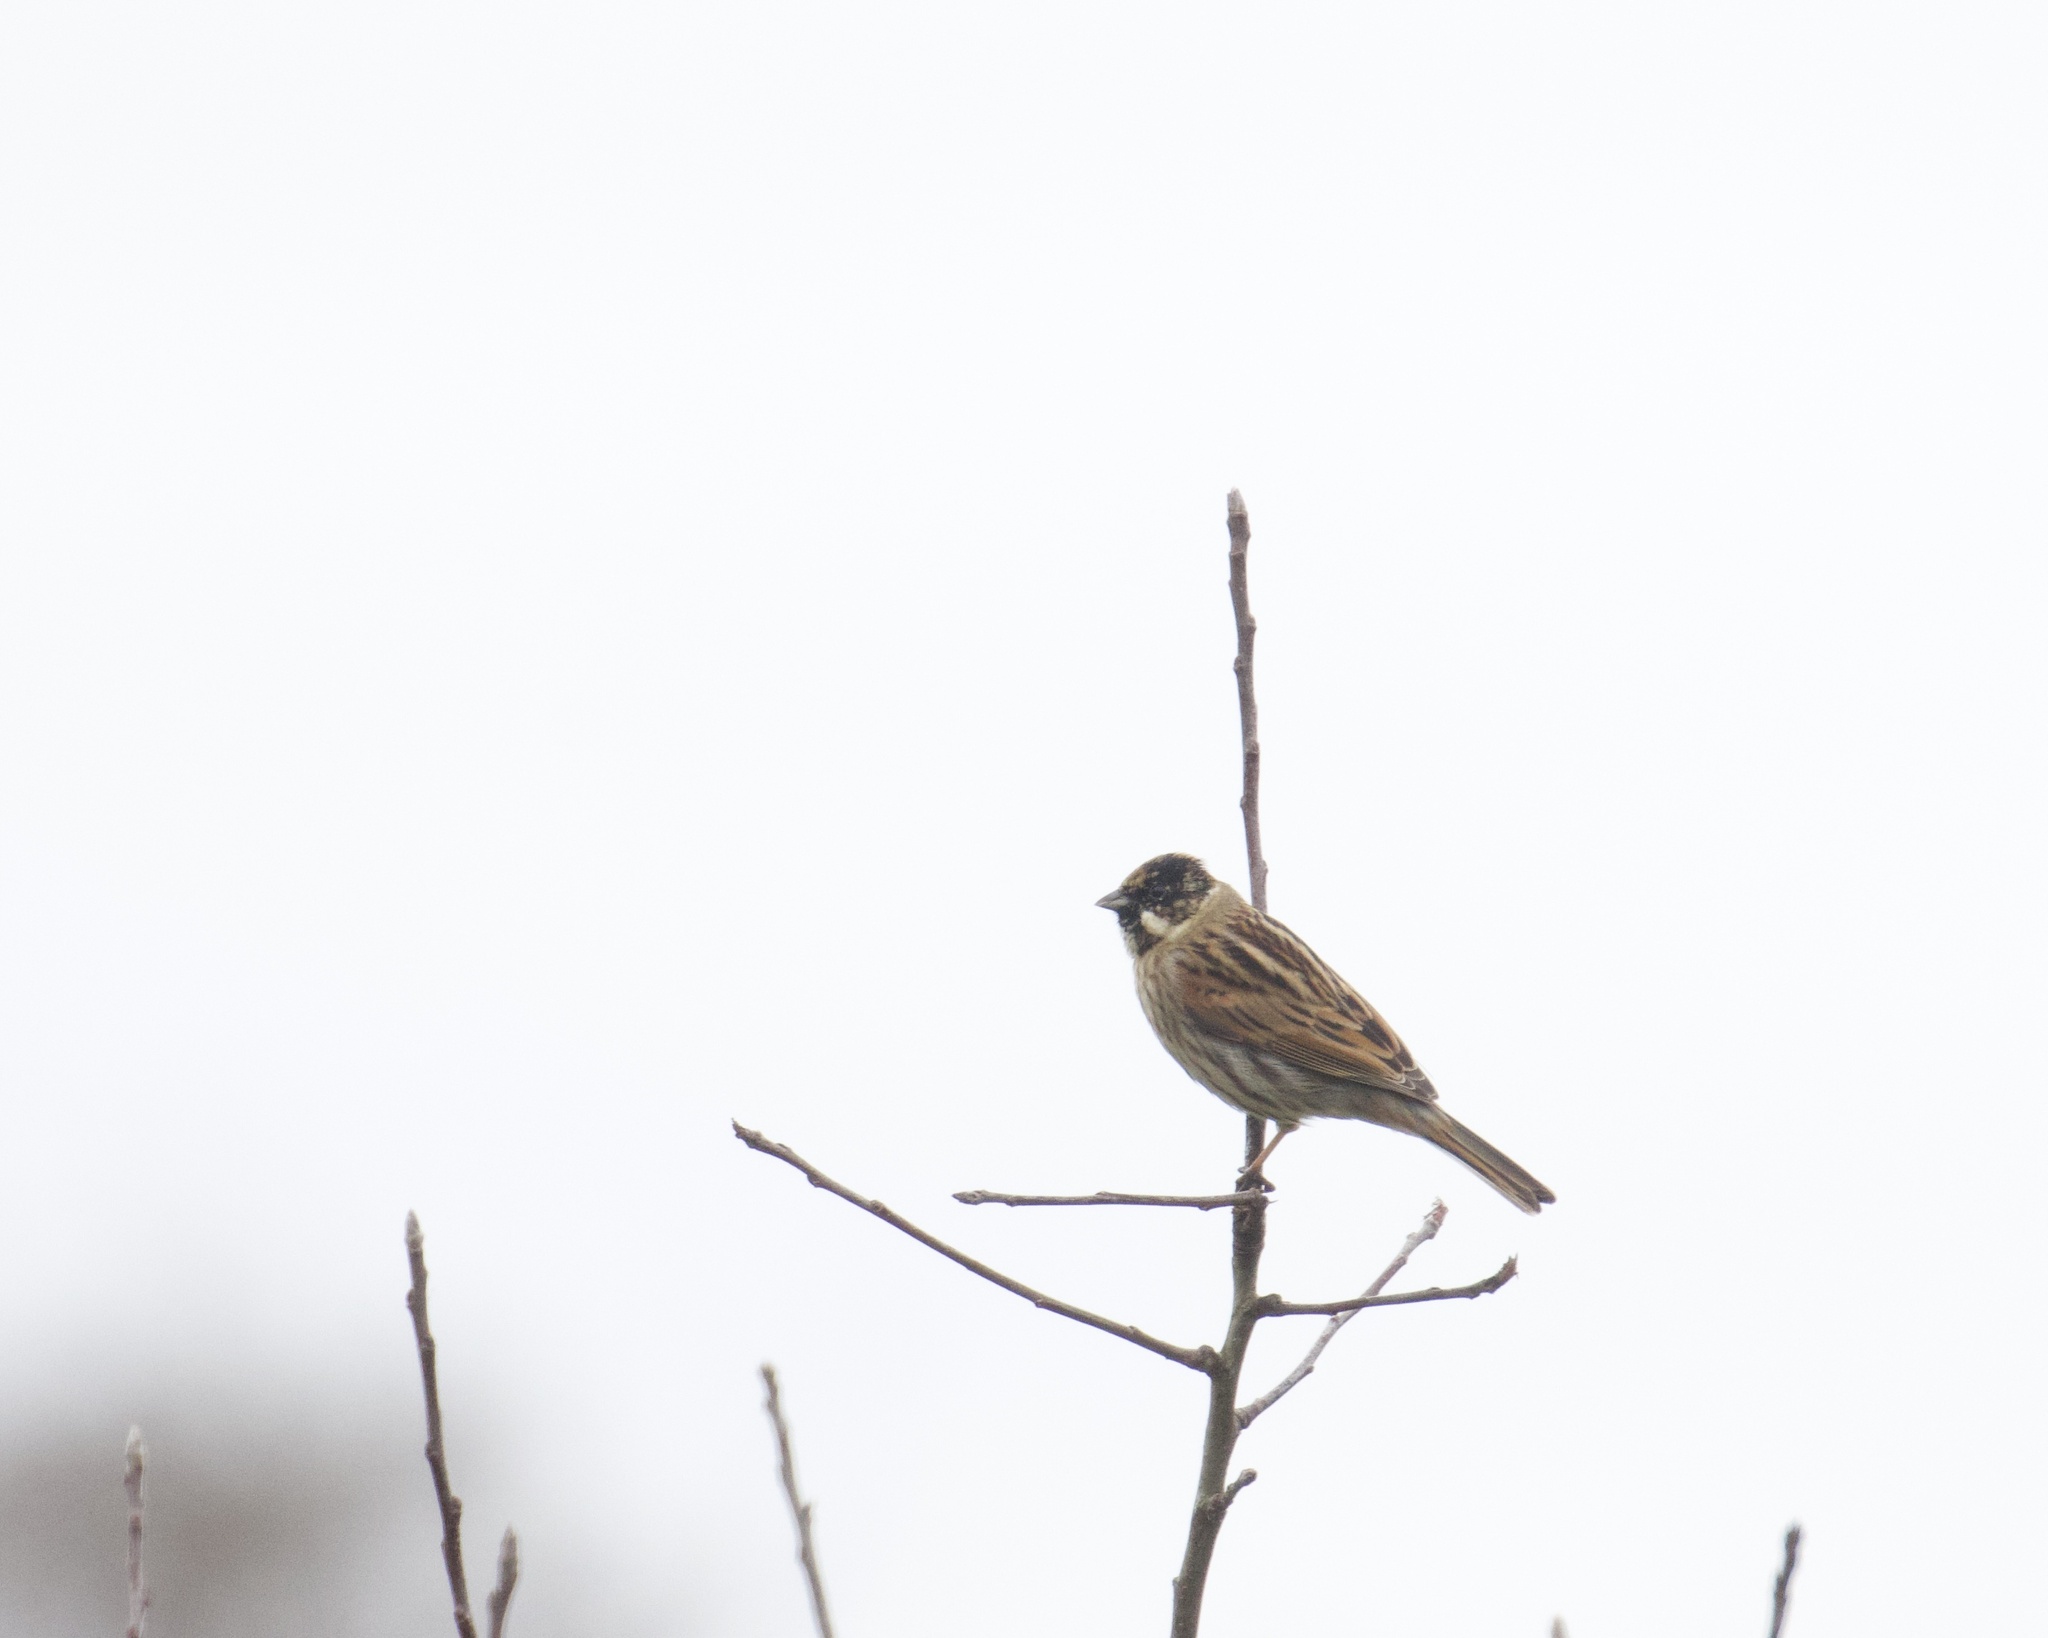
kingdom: Animalia
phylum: Chordata
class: Aves
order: Passeriformes
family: Emberizidae
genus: Emberiza
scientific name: Emberiza schoeniclus
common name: Reed bunting
